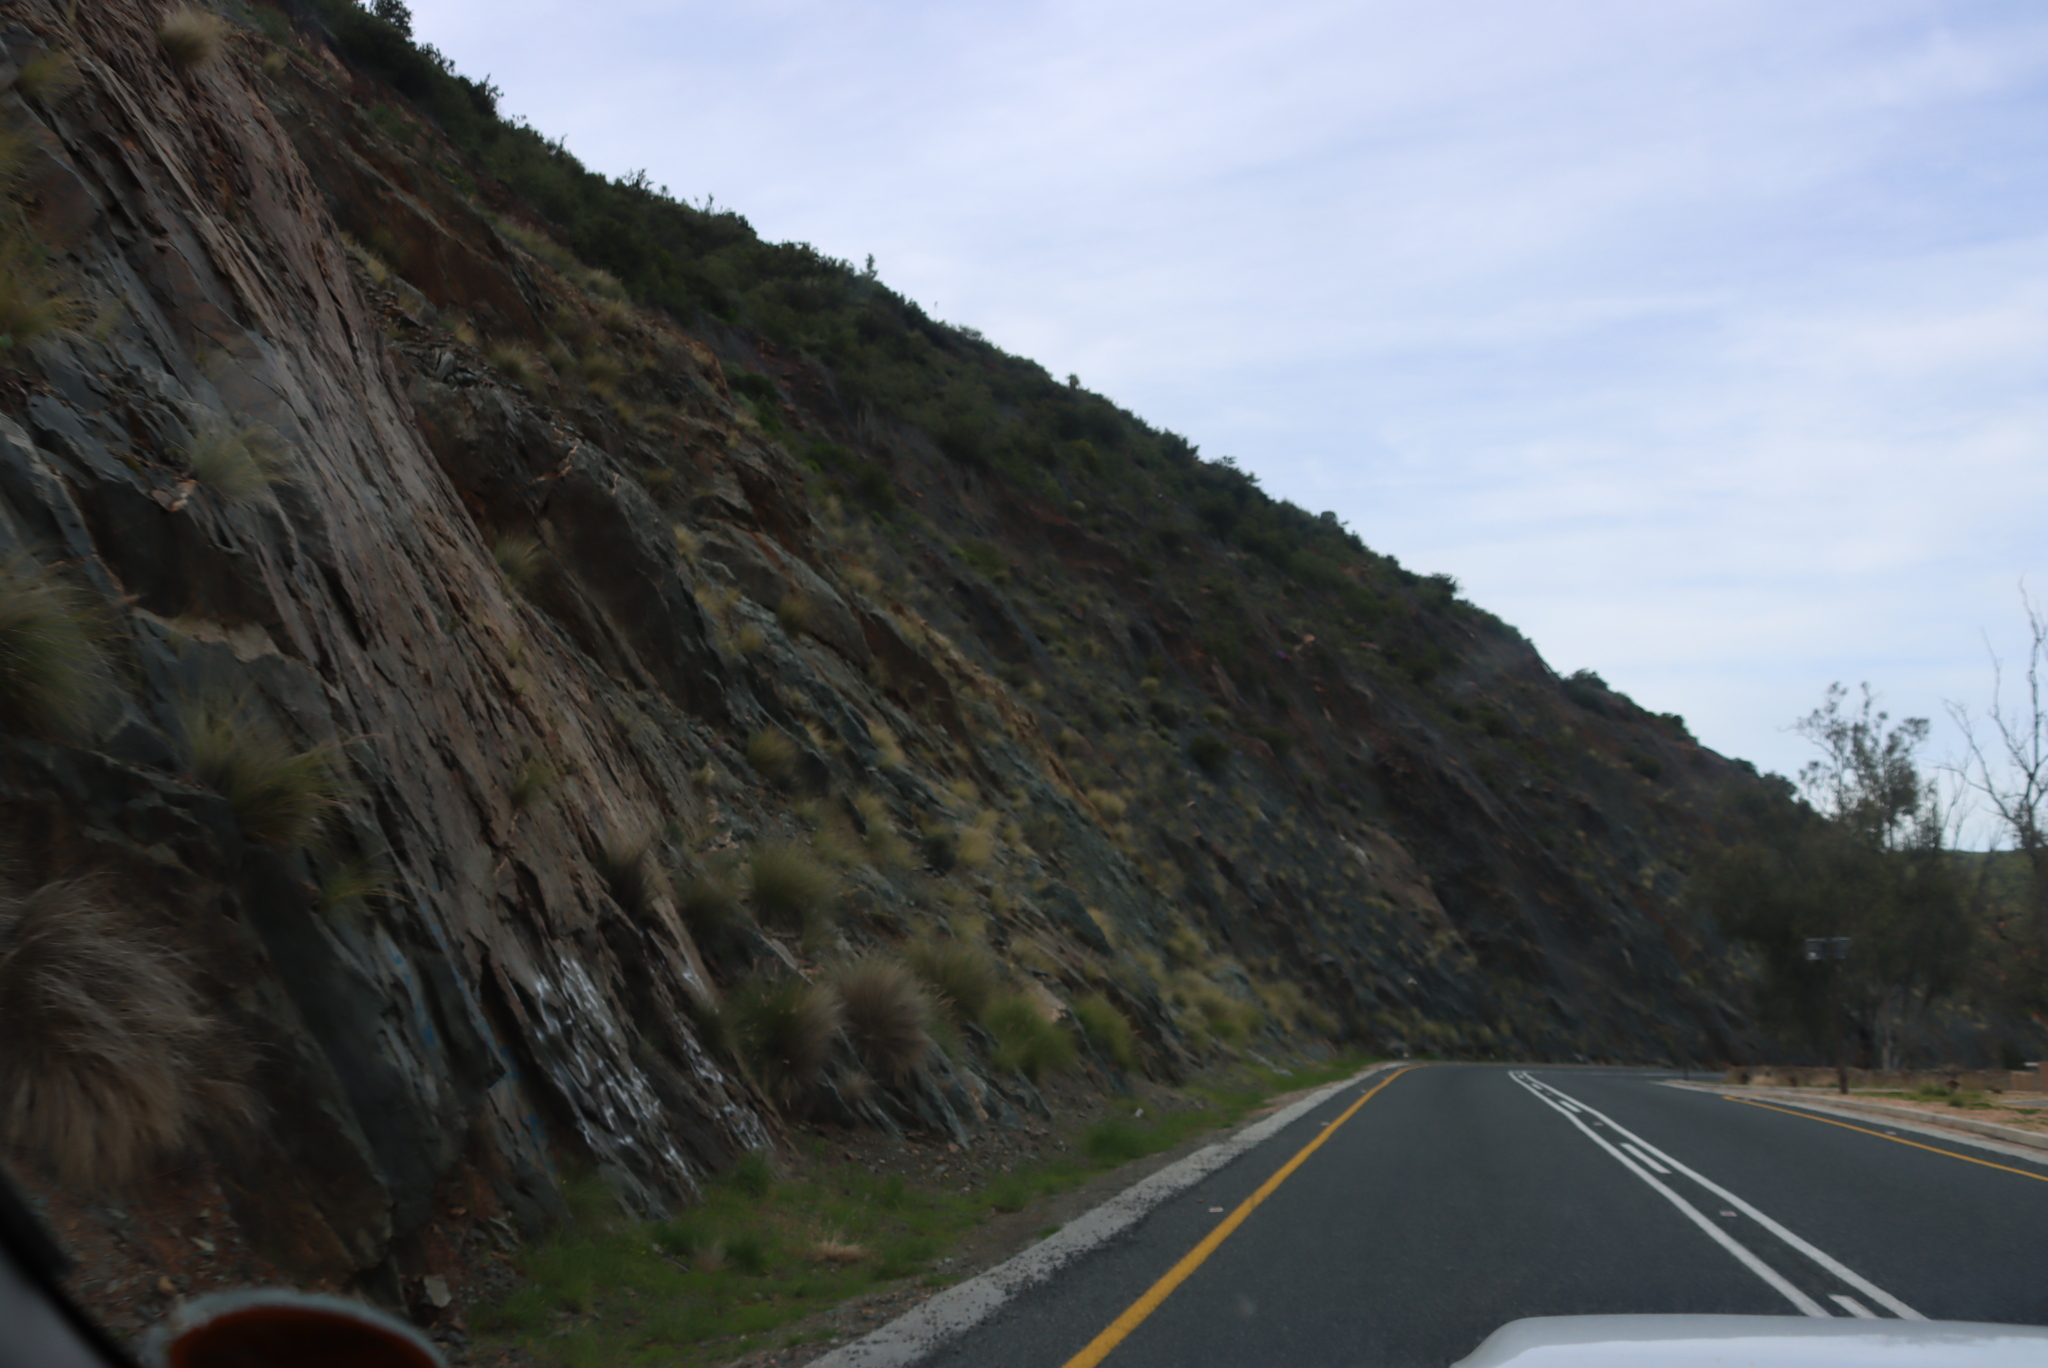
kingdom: Plantae
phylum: Tracheophyta
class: Liliopsida
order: Poales
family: Poaceae
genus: Cenchrus
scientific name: Cenchrus setaceus
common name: Crimson fountaingrass
